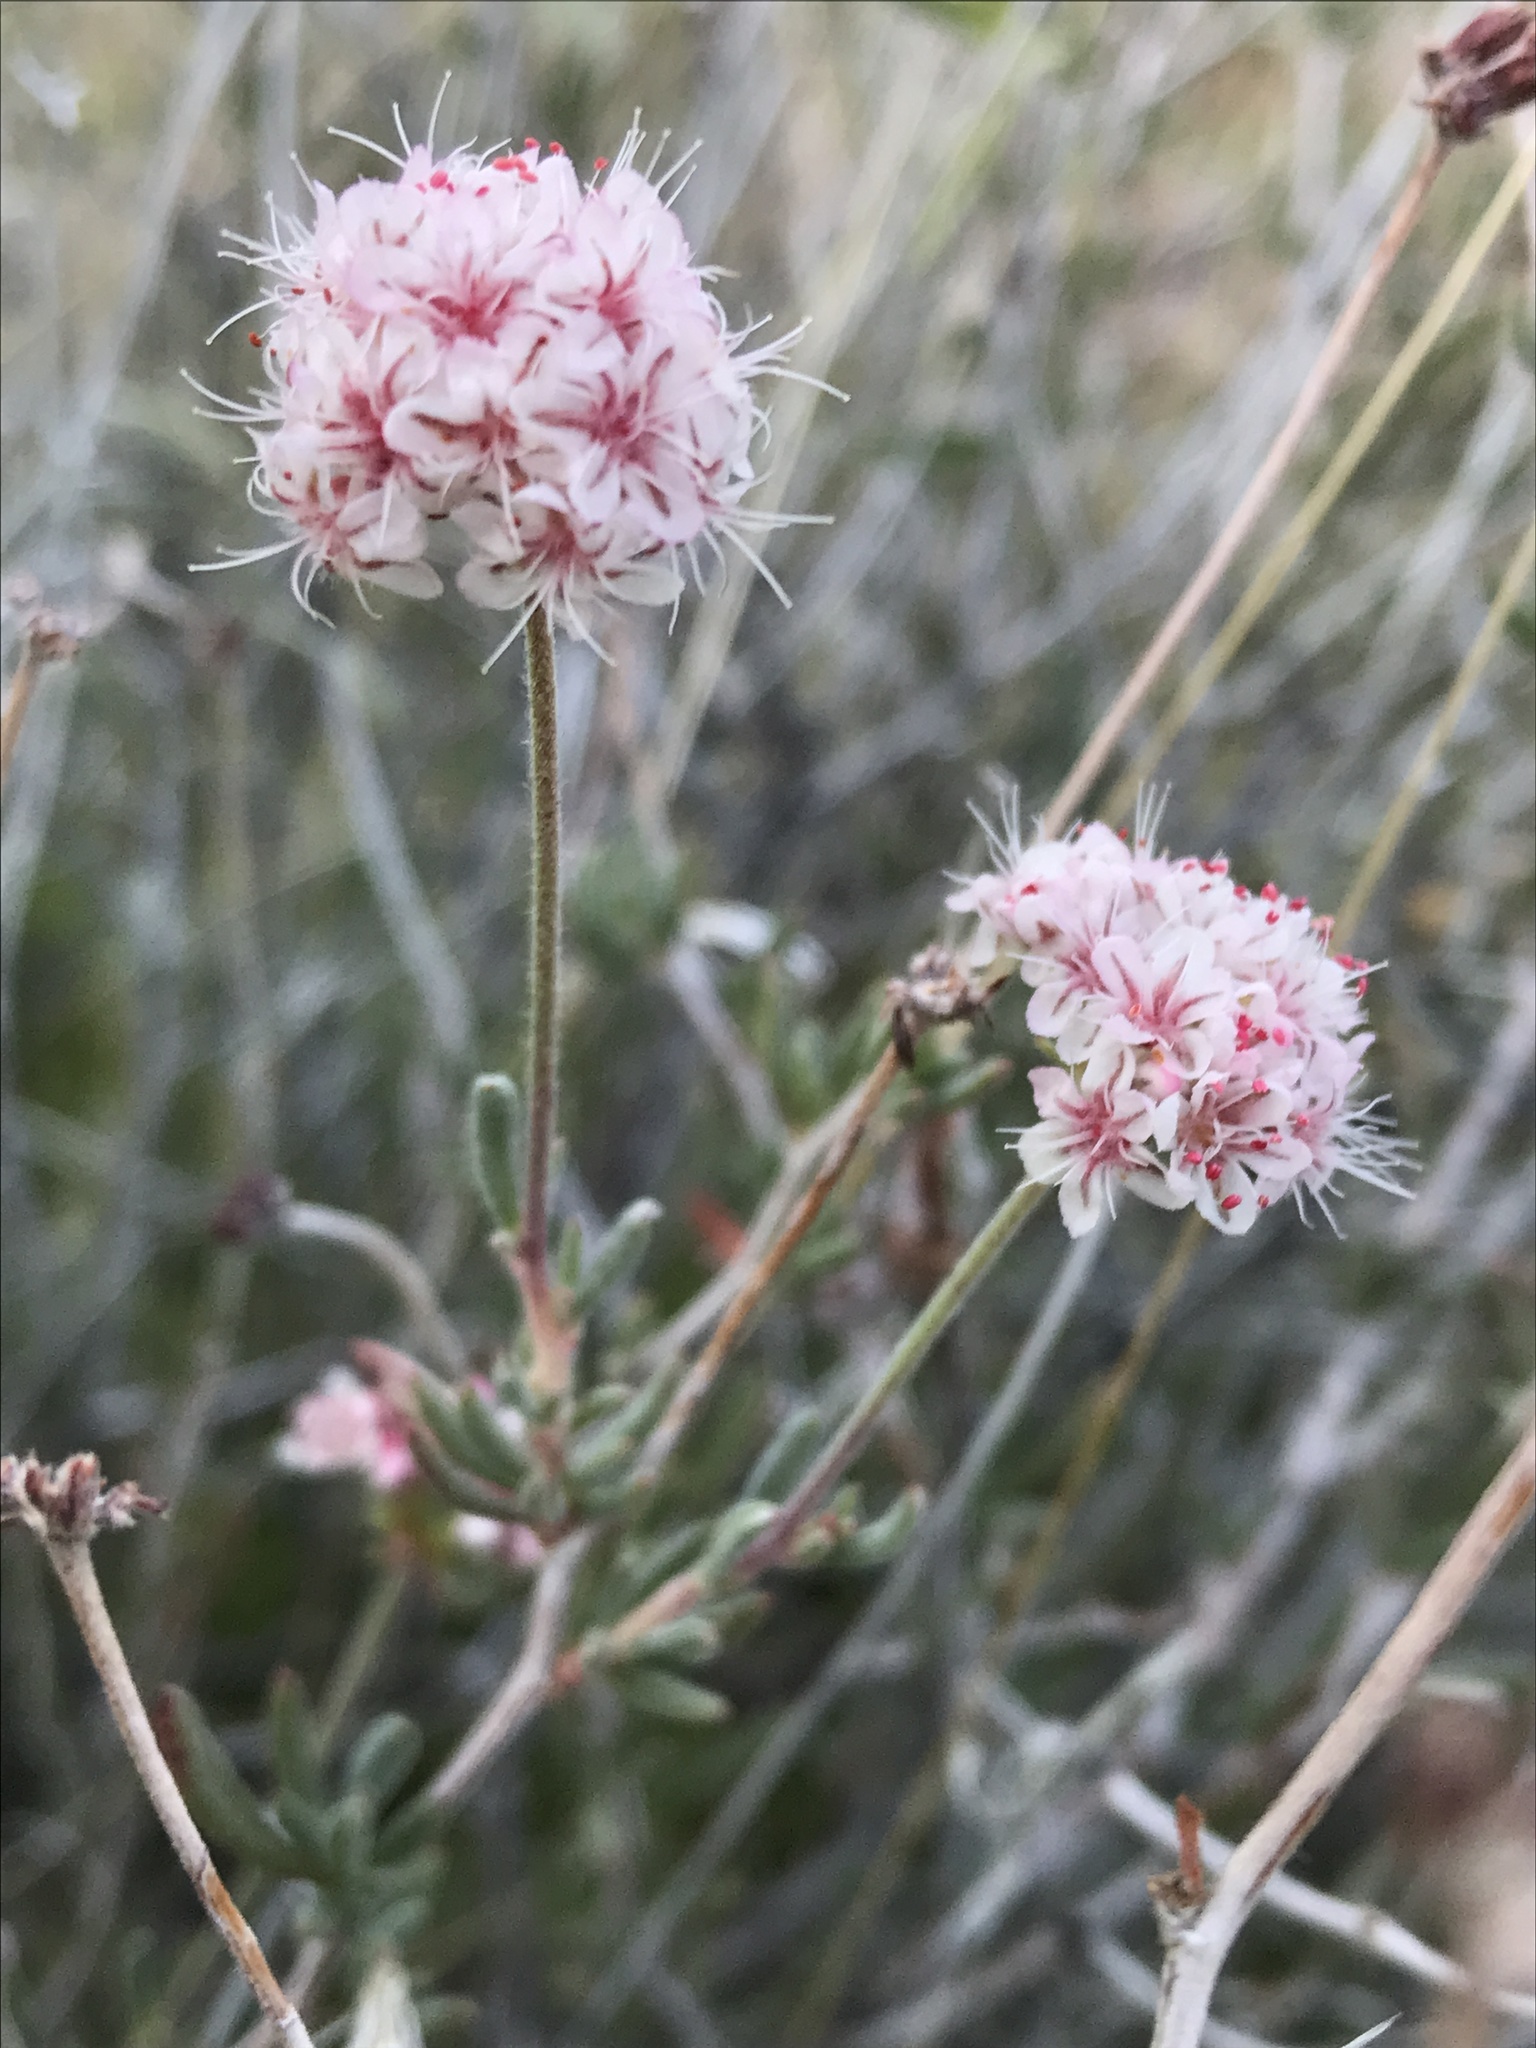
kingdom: Plantae
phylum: Tracheophyta
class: Magnoliopsida
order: Caryophyllales
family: Polygonaceae
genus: Eriogonum
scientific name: Eriogonum fasciculatum
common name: California wild buckwheat
